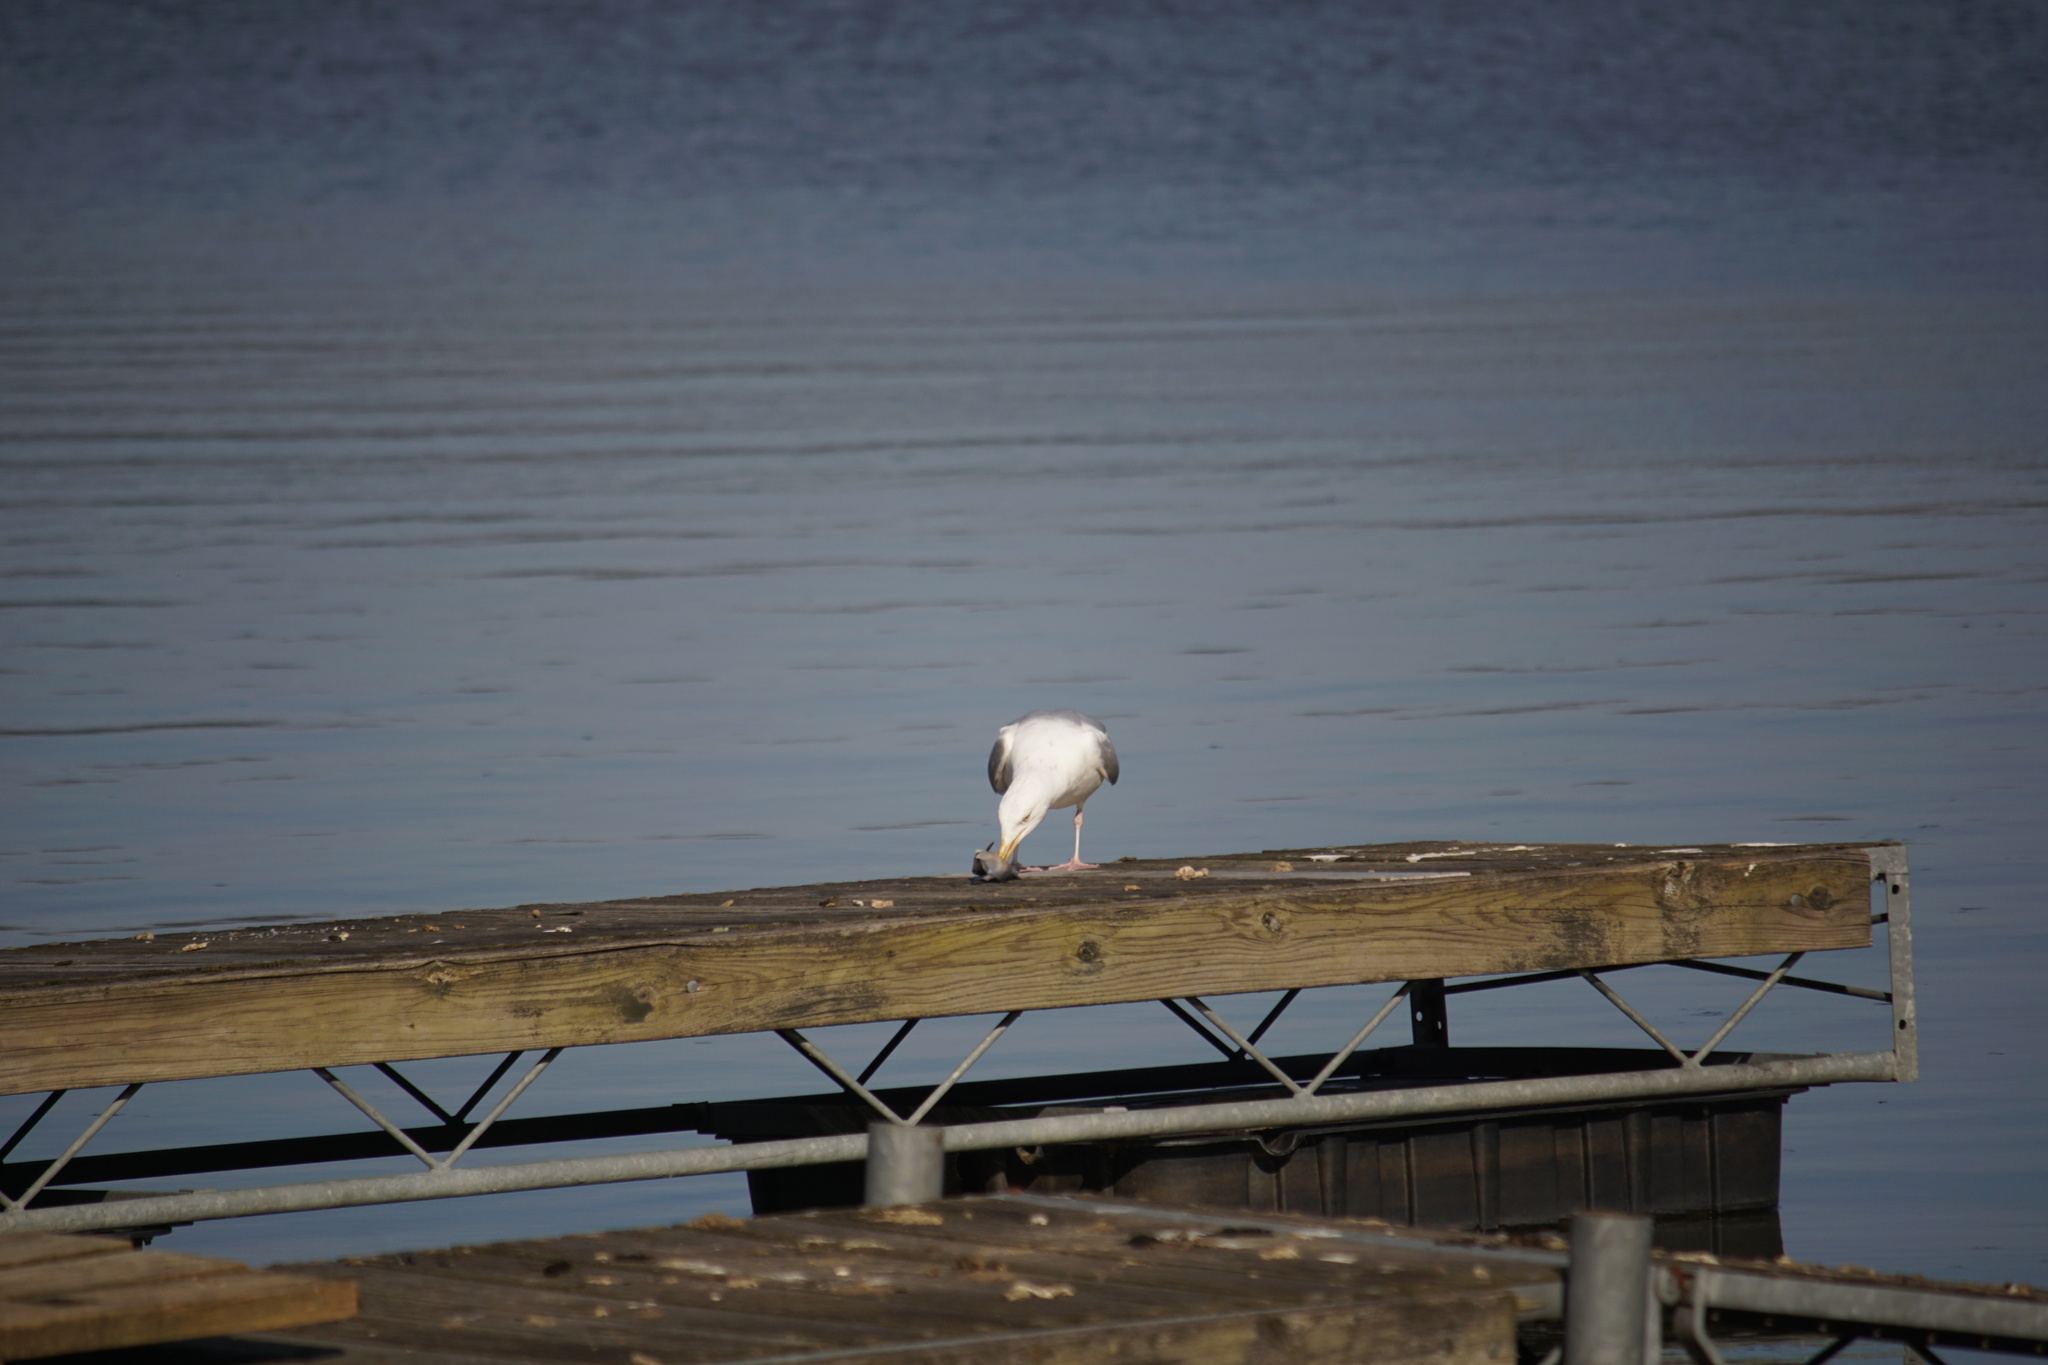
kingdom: Animalia
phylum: Chordata
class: Aves
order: Charadriiformes
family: Laridae
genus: Larus
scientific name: Larus argentatus
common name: Herring gull
